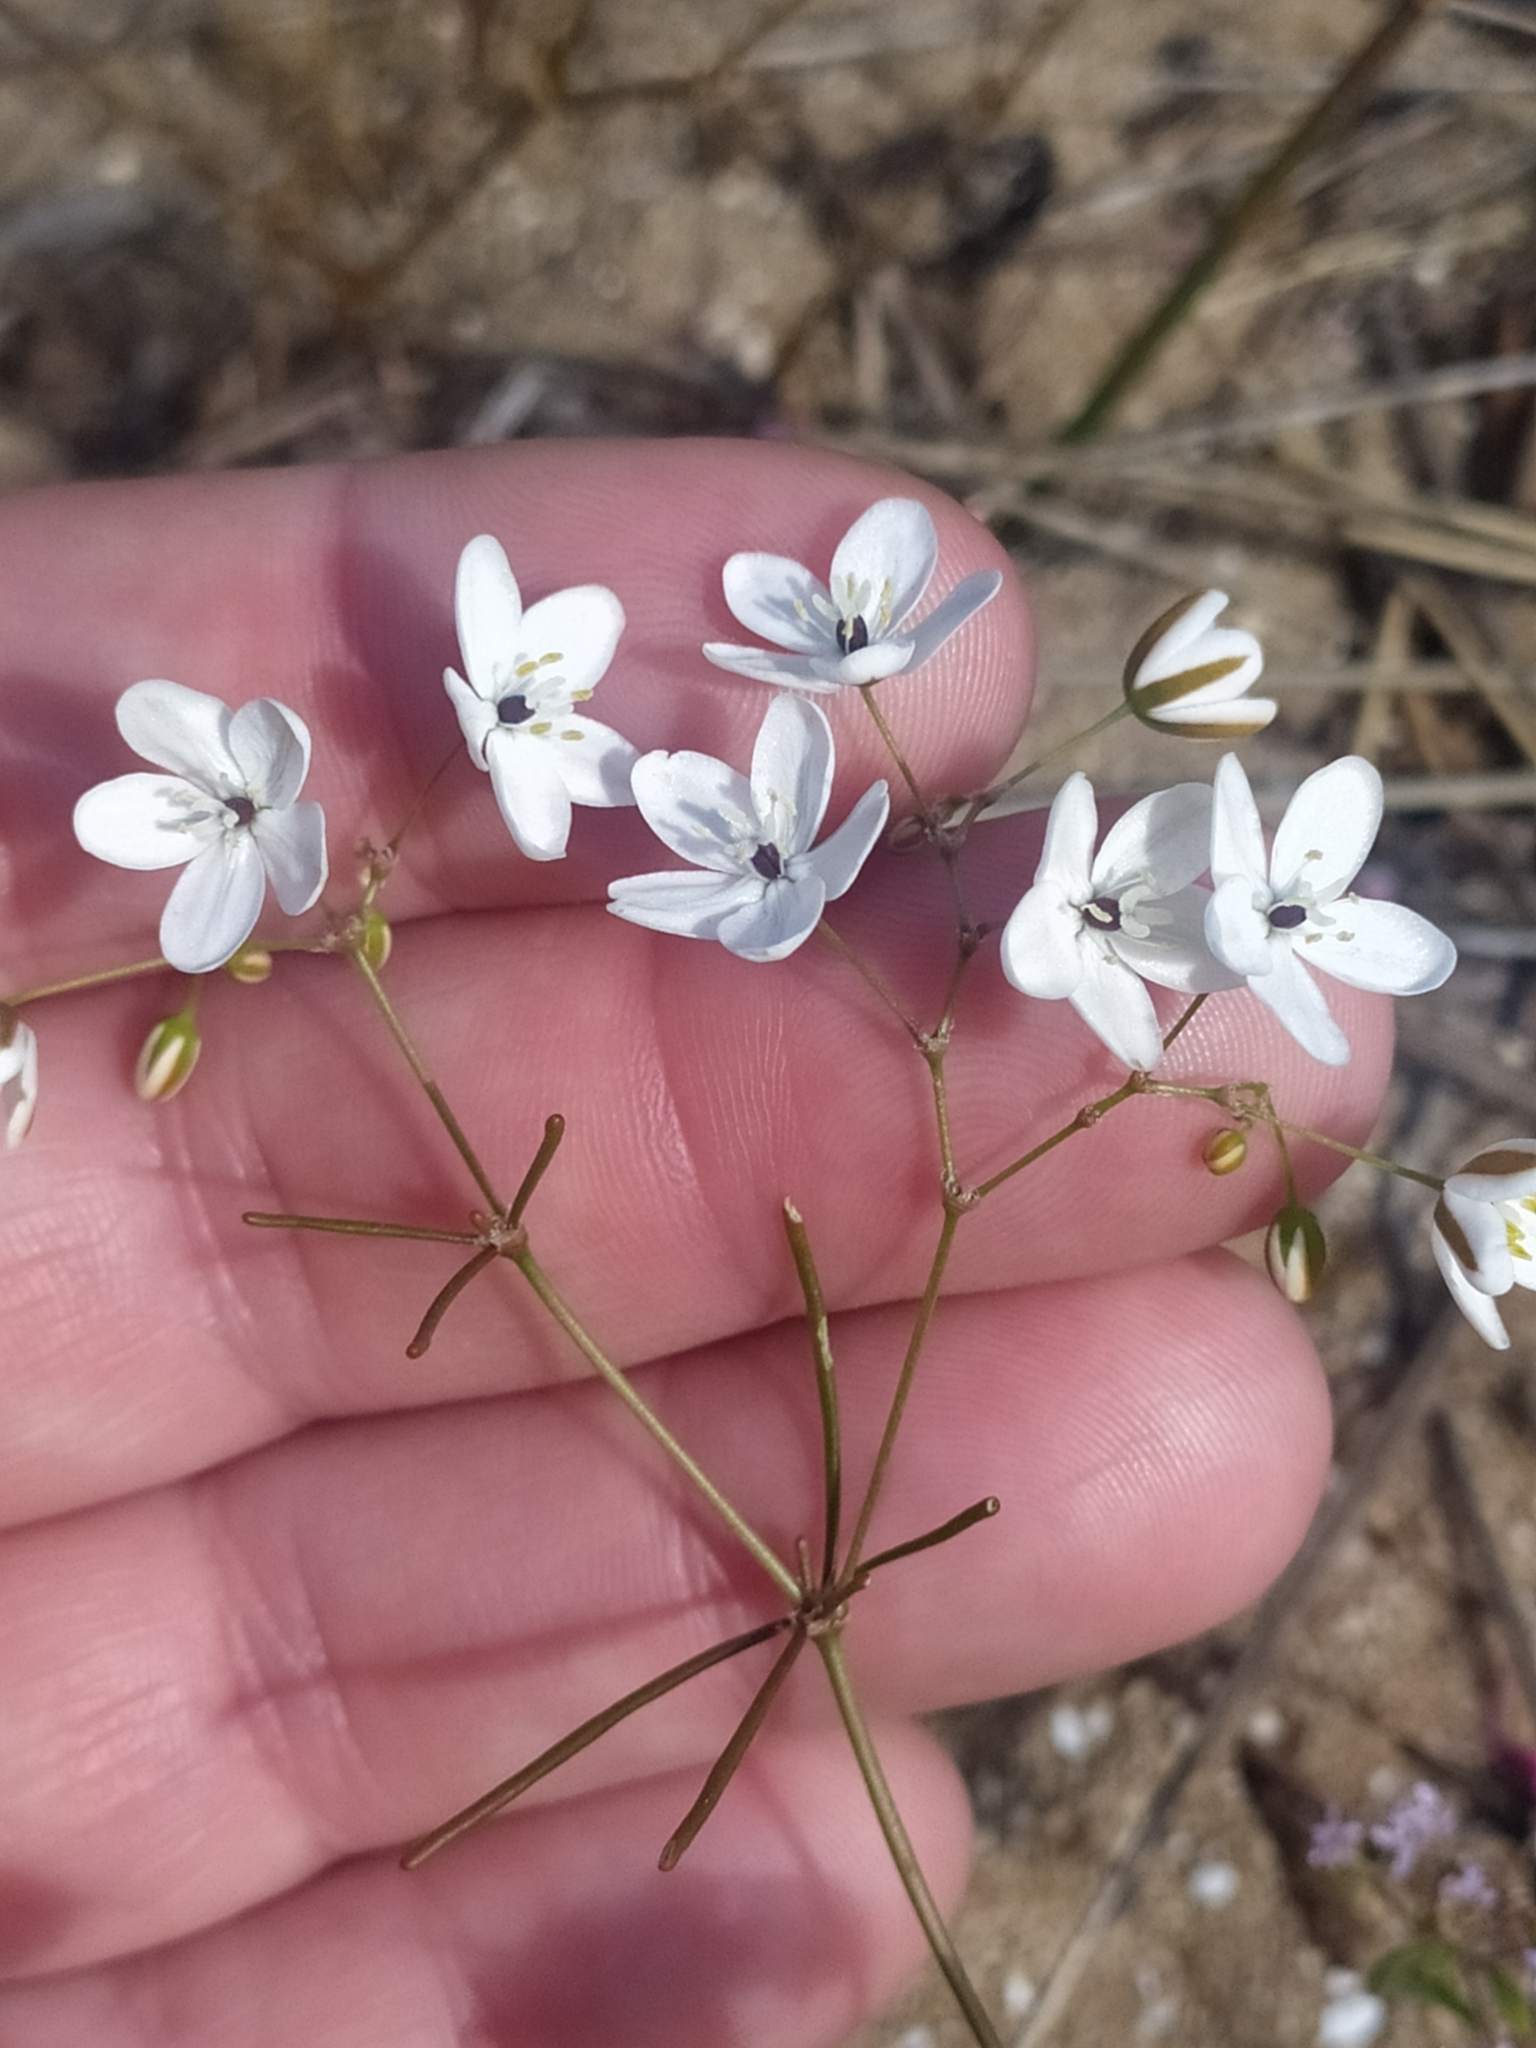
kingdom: Plantae
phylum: Tracheophyta
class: Magnoliopsida
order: Caryophyllales
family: Molluginaceae
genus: Pharnaceum
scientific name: Pharnaceum lineare
